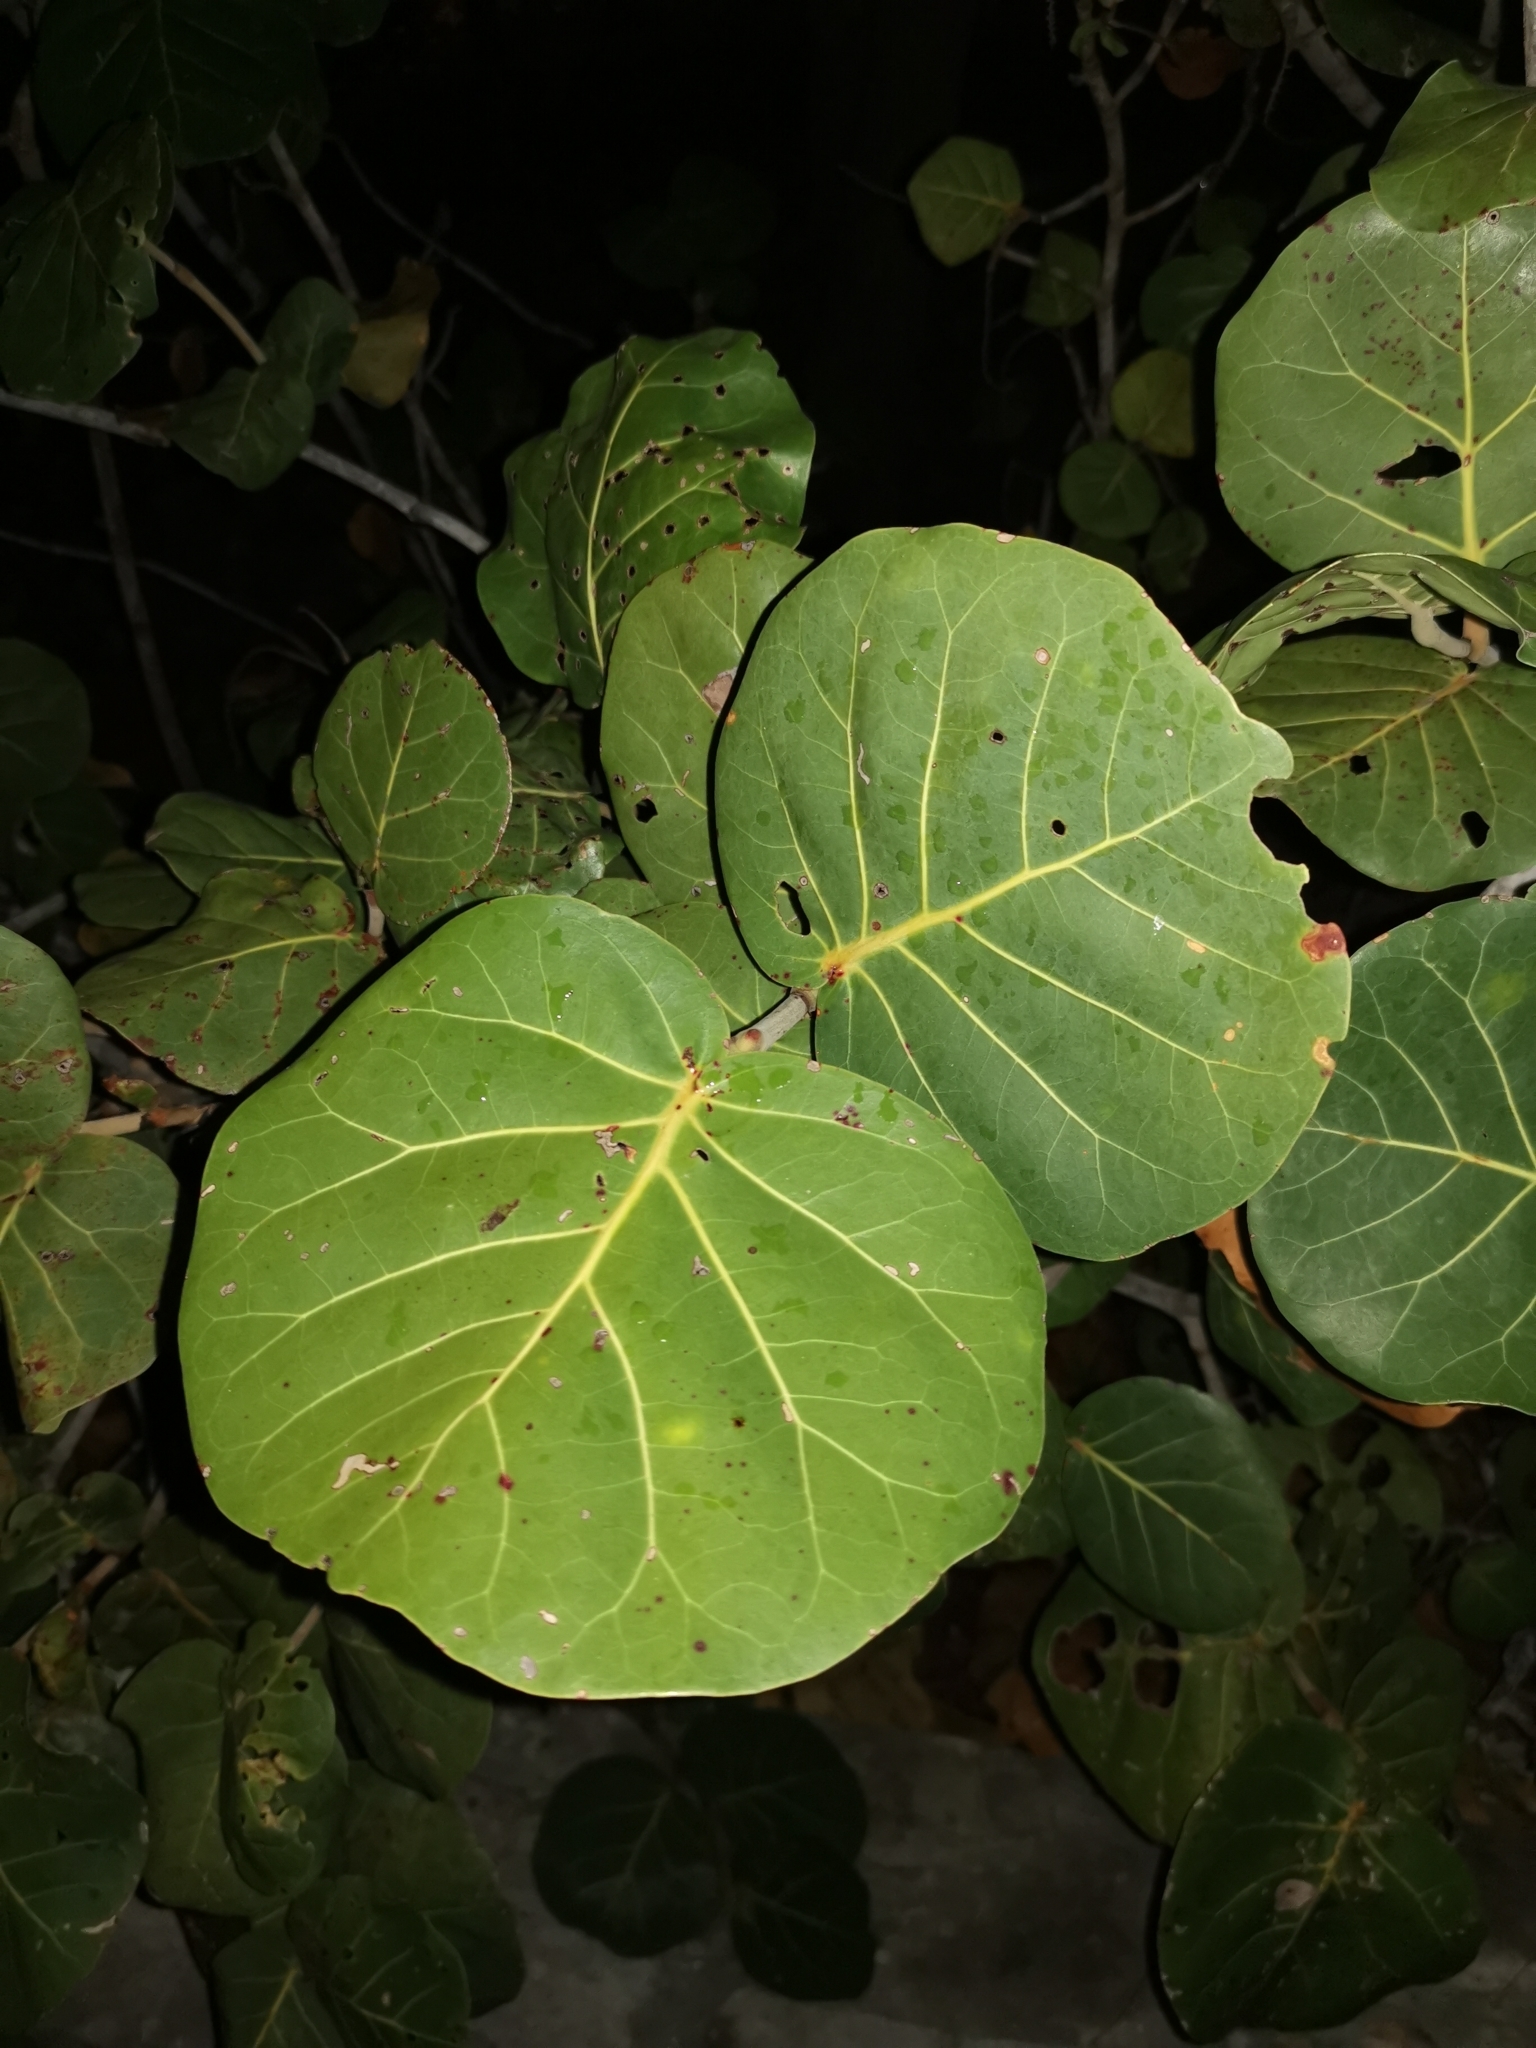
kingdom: Plantae
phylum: Tracheophyta
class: Magnoliopsida
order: Caryophyllales
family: Polygonaceae
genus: Coccoloba
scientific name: Coccoloba uvifera
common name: Seagrape
